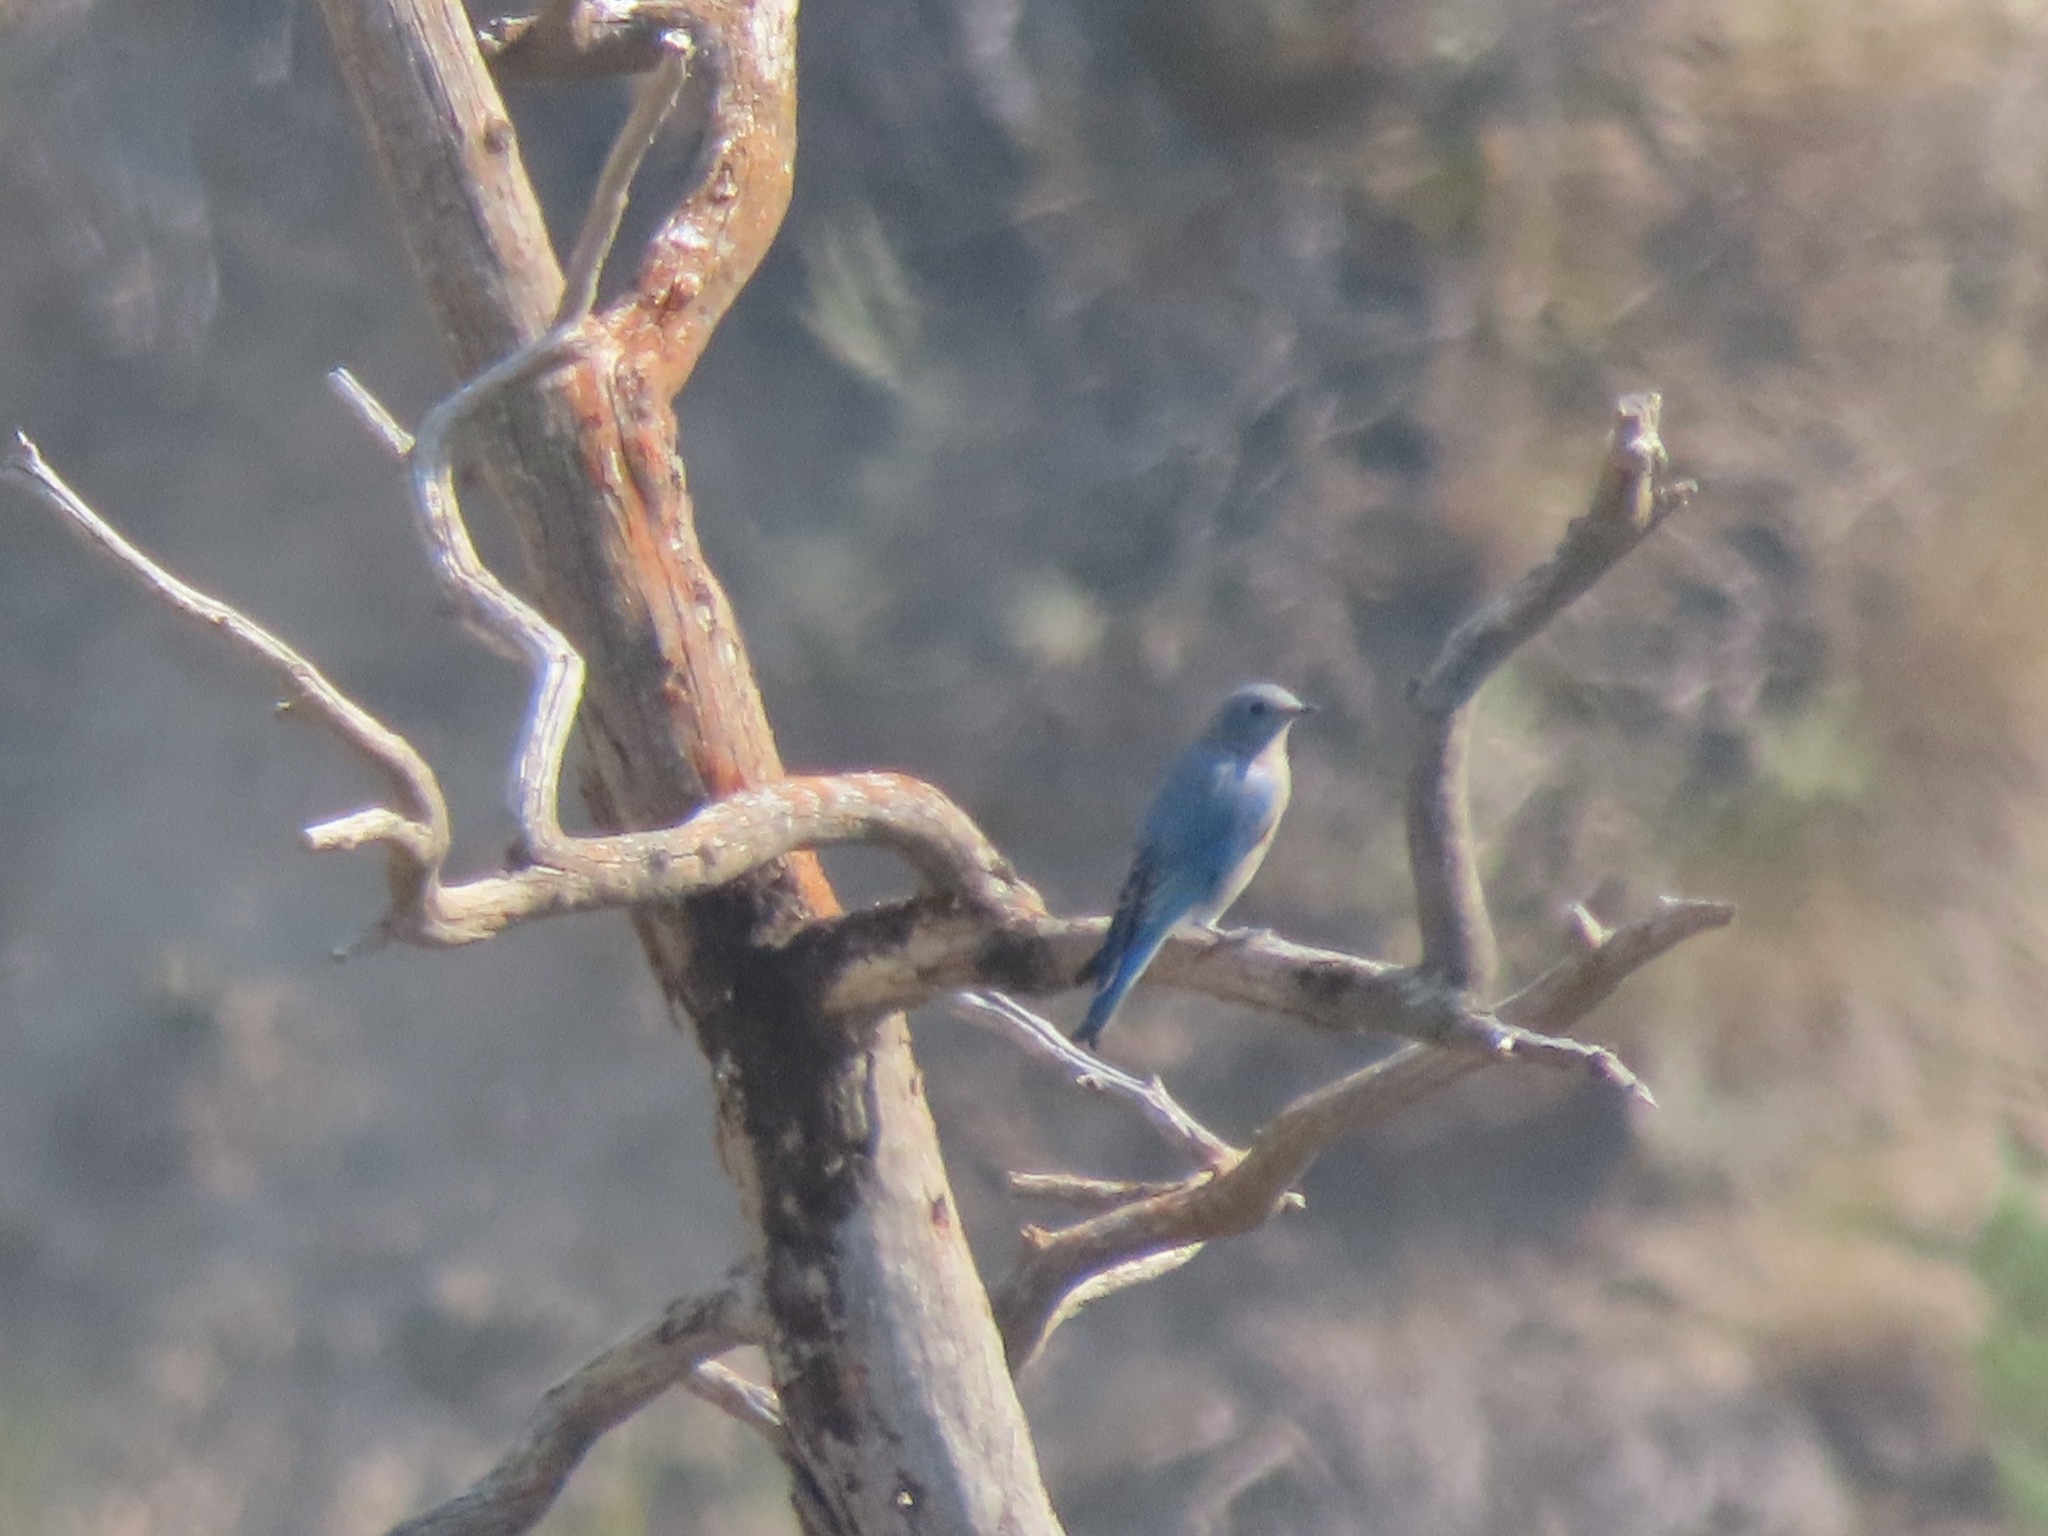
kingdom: Animalia
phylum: Chordata
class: Aves
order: Passeriformes
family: Turdidae
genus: Sialia
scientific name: Sialia currucoides
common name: Mountain bluebird
